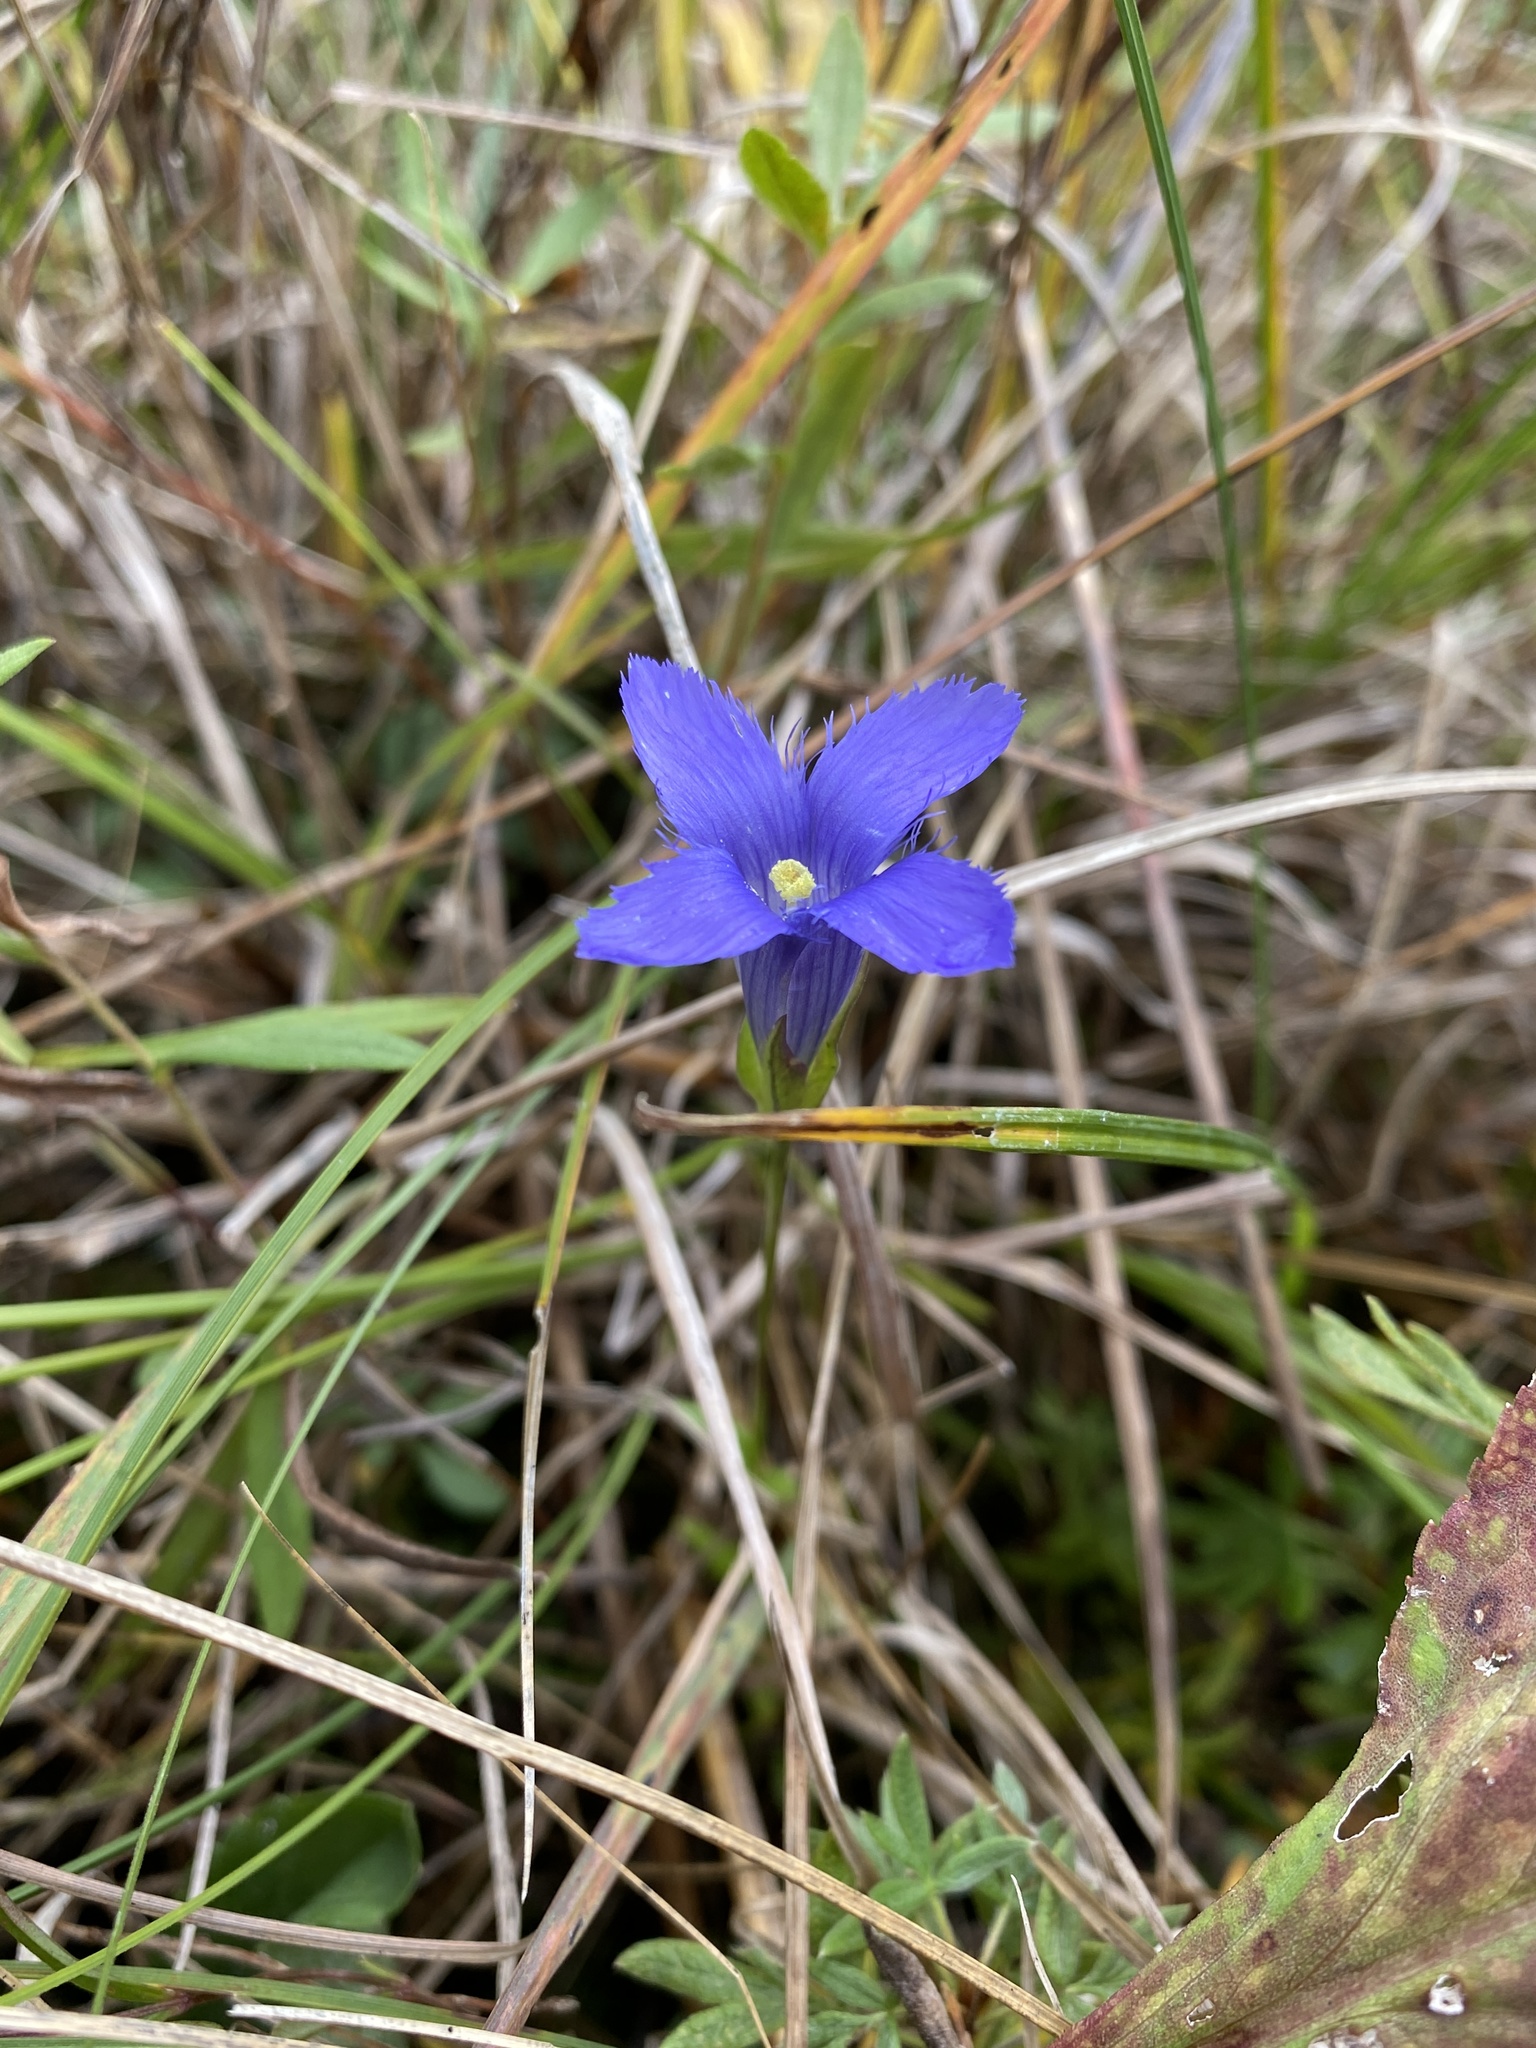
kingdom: Plantae
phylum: Tracheophyta
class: Magnoliopsida
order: Gentianales
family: Gentianaceae
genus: Gentianopsis
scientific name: Gentianopsis
